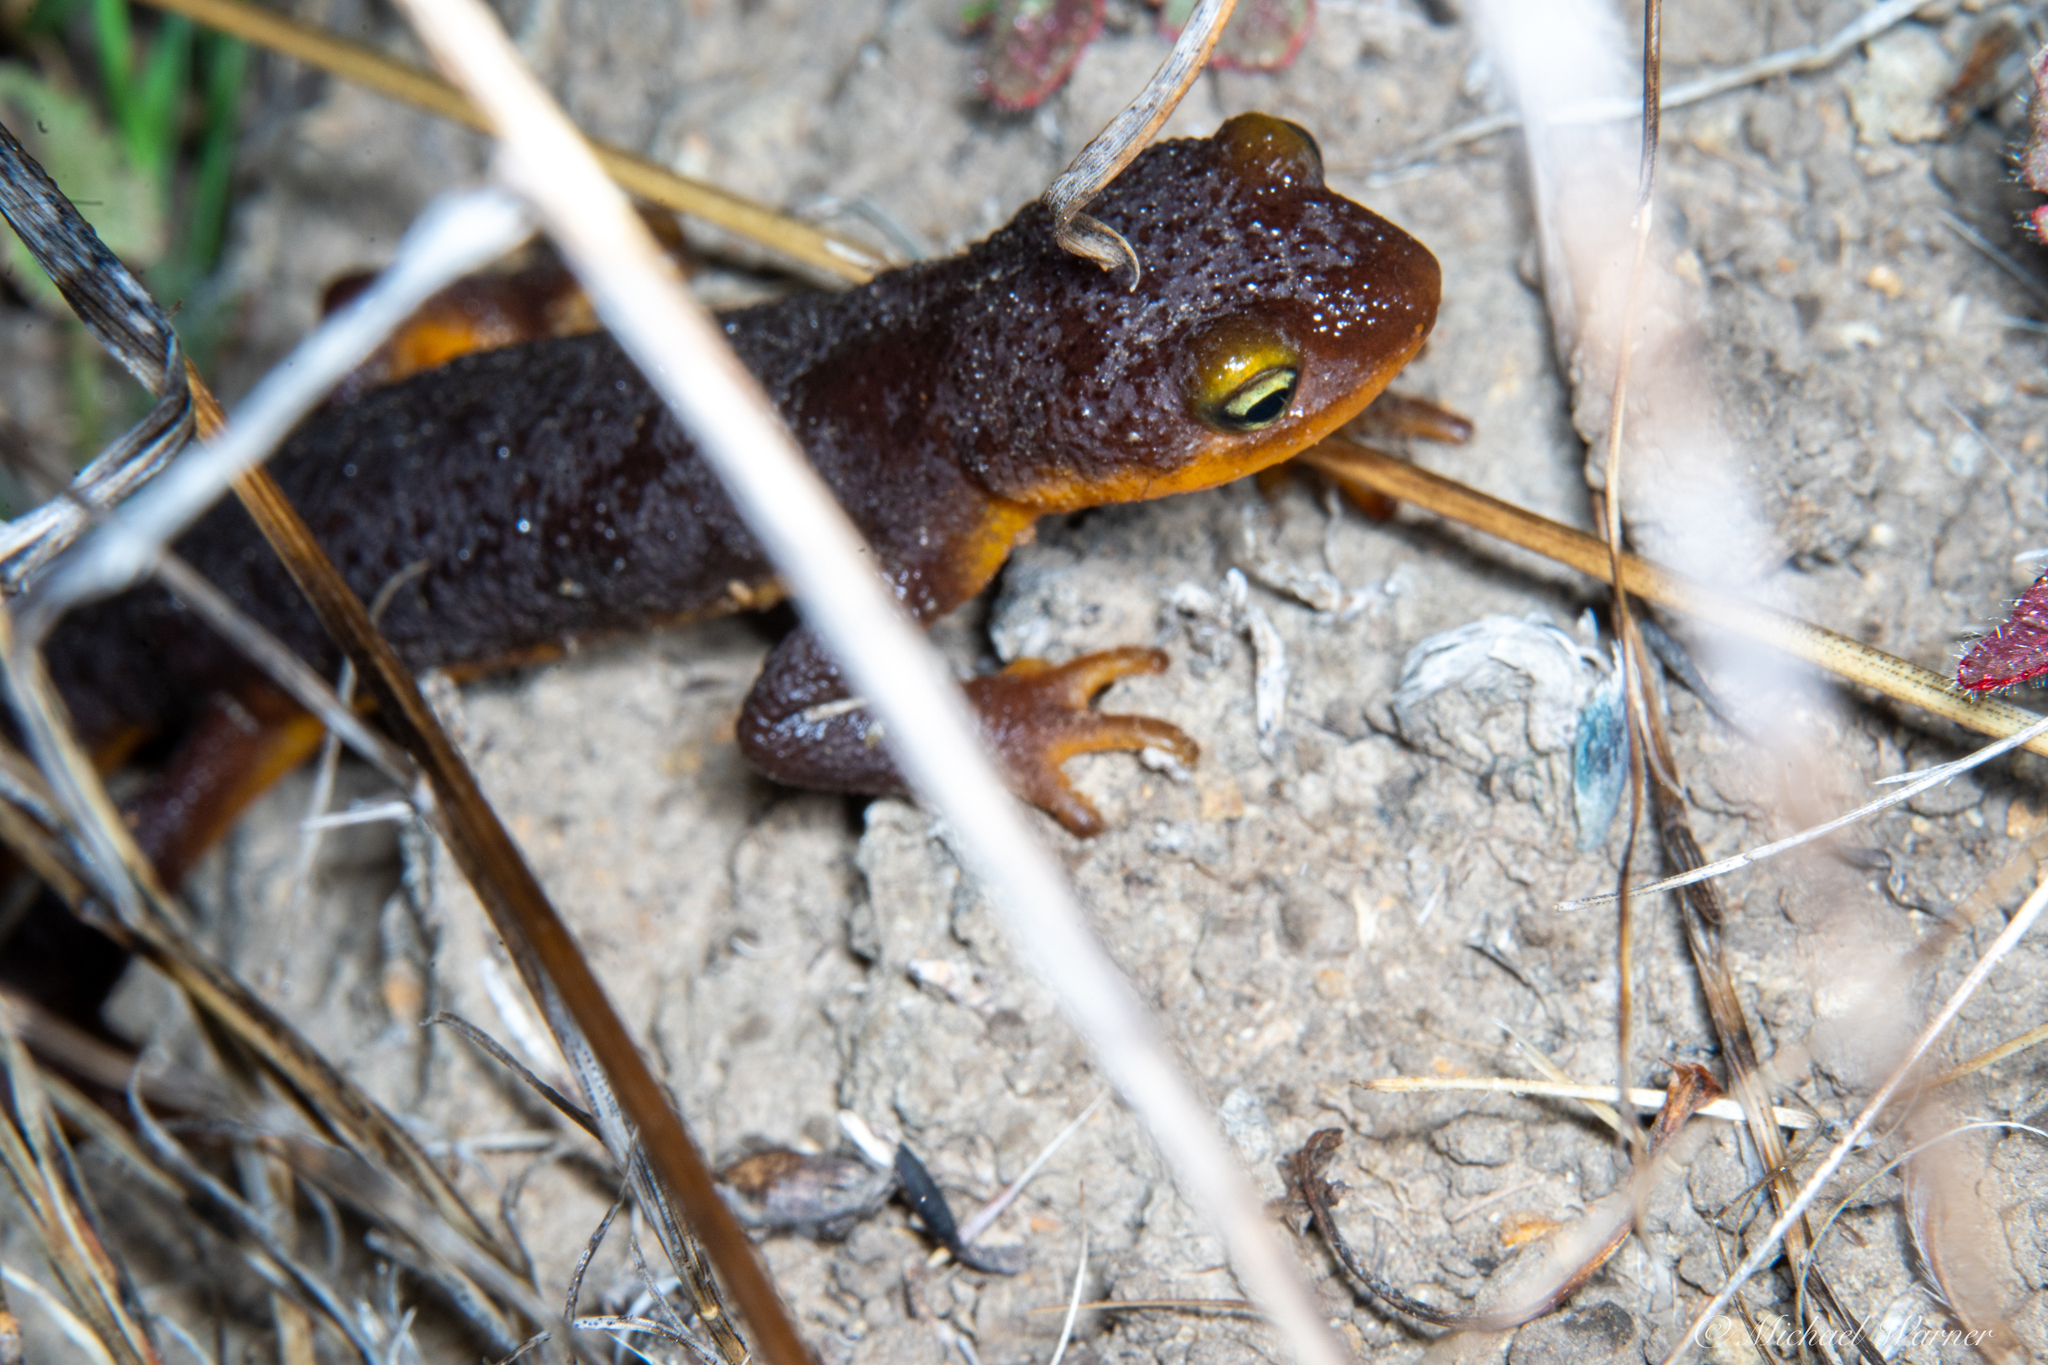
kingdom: Animalia
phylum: Chordata
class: Amphibia
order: Caudata
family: Salamandridae
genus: Taricha
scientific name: Taricha torosa
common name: California newt
